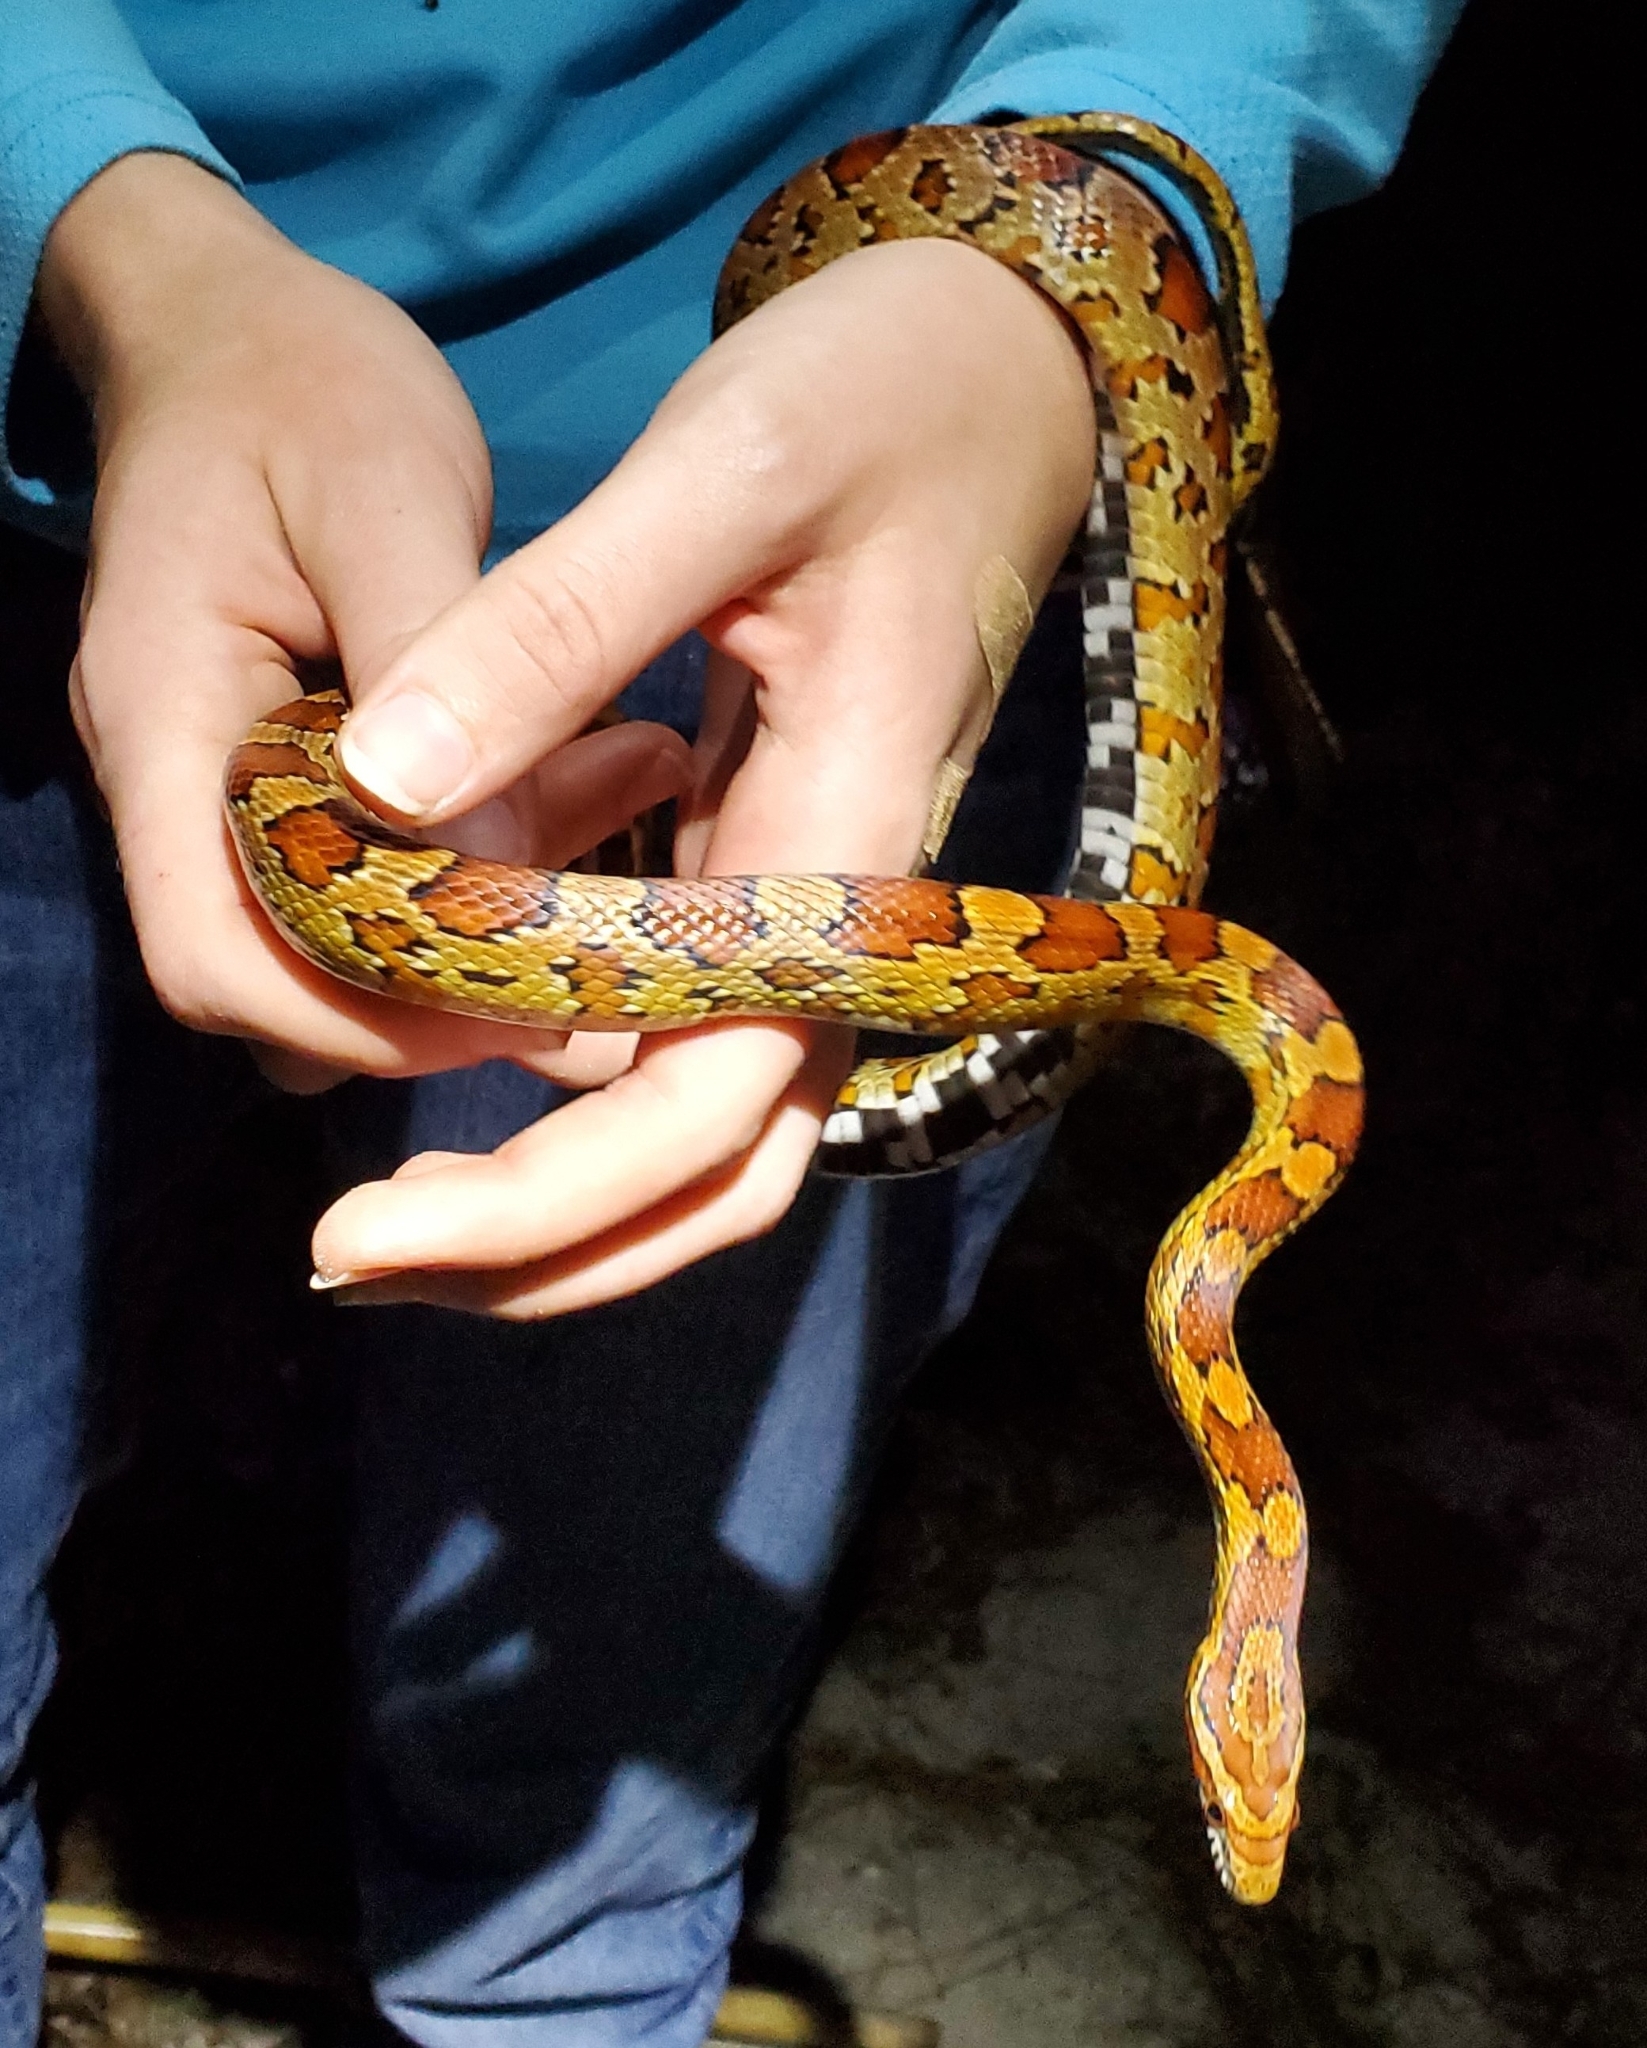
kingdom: Animalia
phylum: Chordata
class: Squamata
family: Colubridae
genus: Pantherophis
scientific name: Pantherophis guttatus
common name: Red cornsnake
